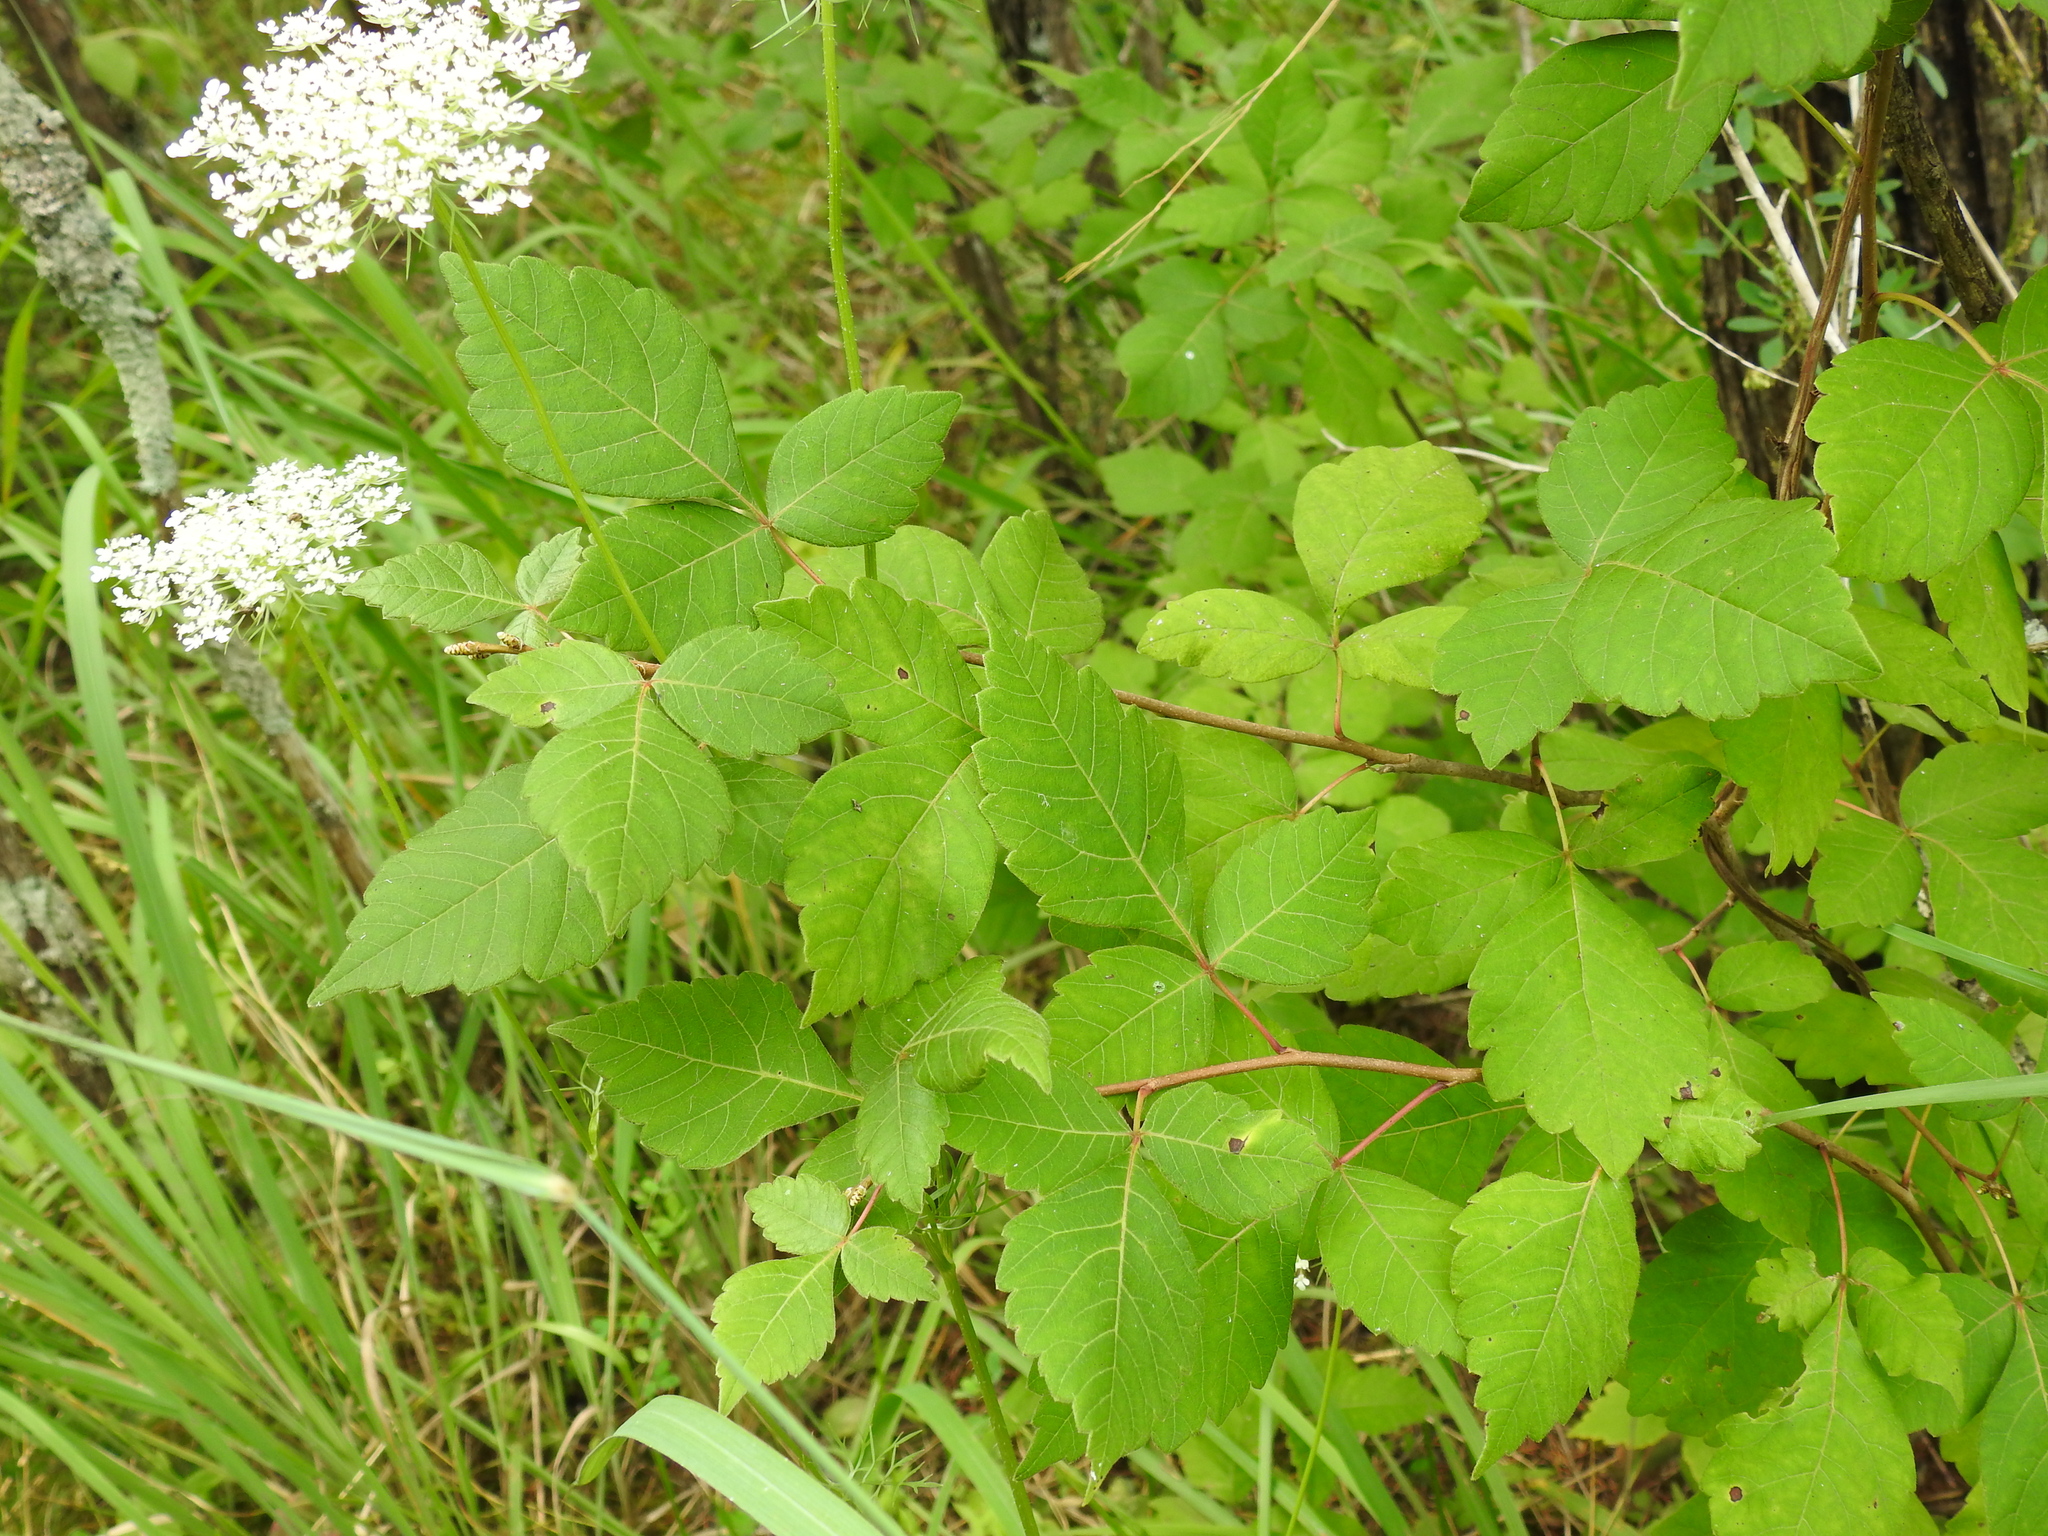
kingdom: Plantae
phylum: Tracheophyta
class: Magnoliopsida
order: Sapindales
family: Anacardiaceae
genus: Rhus
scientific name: Rhus aromatica
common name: Aromatic sumac
